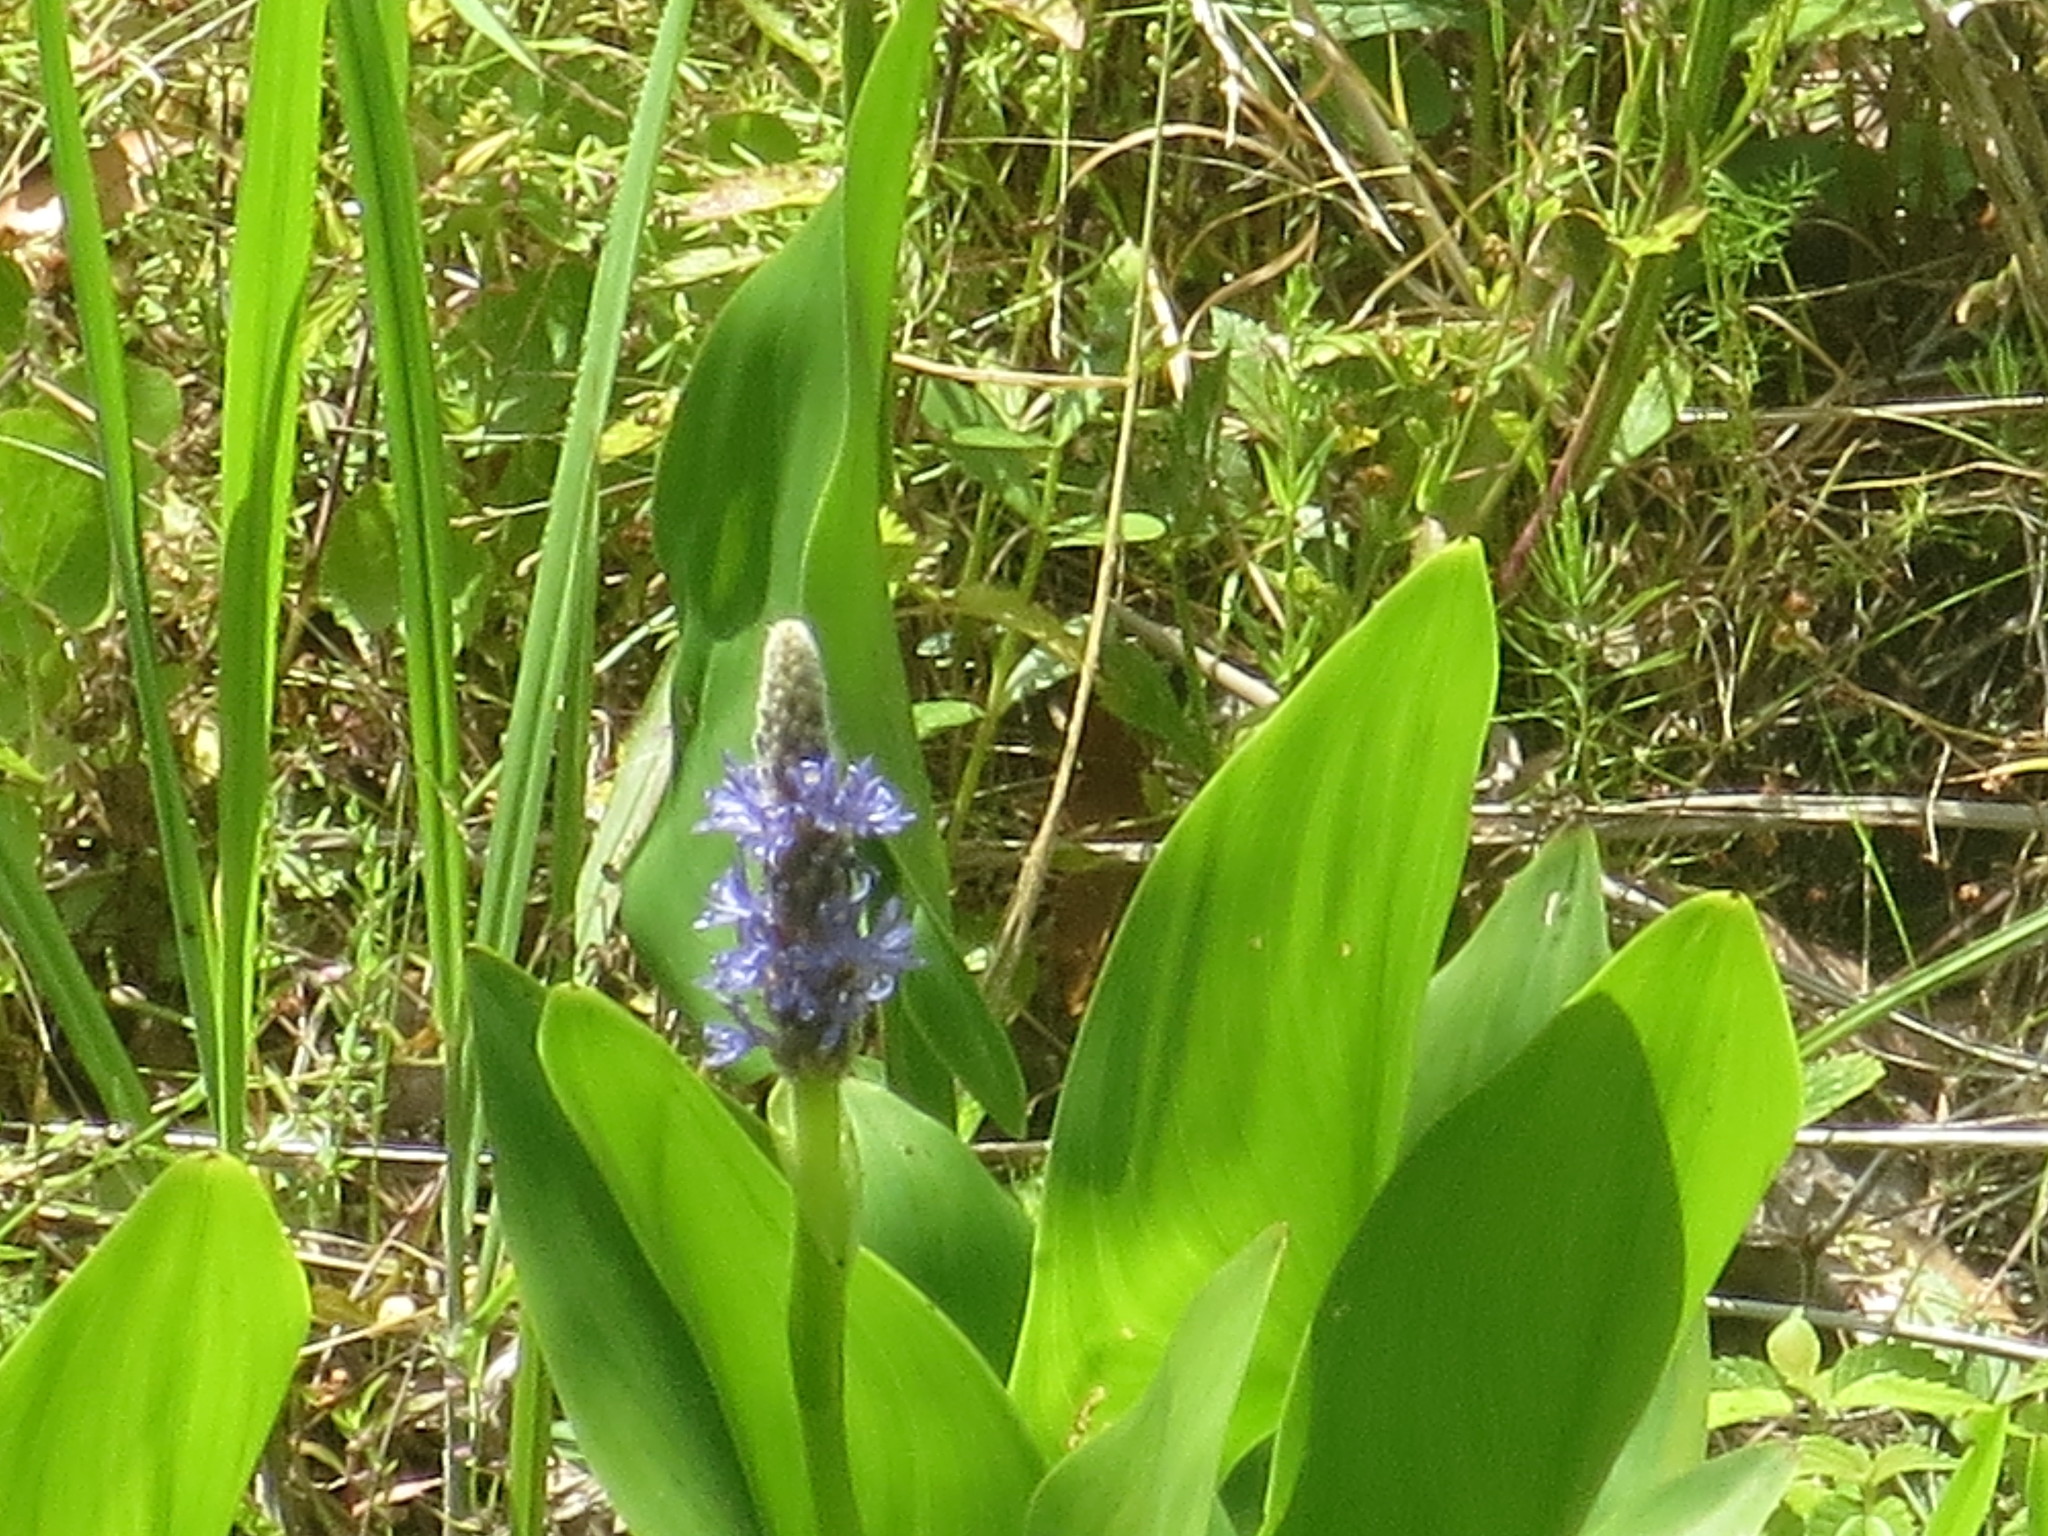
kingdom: Plantae
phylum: Tracheophyta
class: Liliopsida
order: Commelinales
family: Pontederiaceae
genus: Pontederia
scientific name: Pontederia cordata
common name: Pickerelweed
